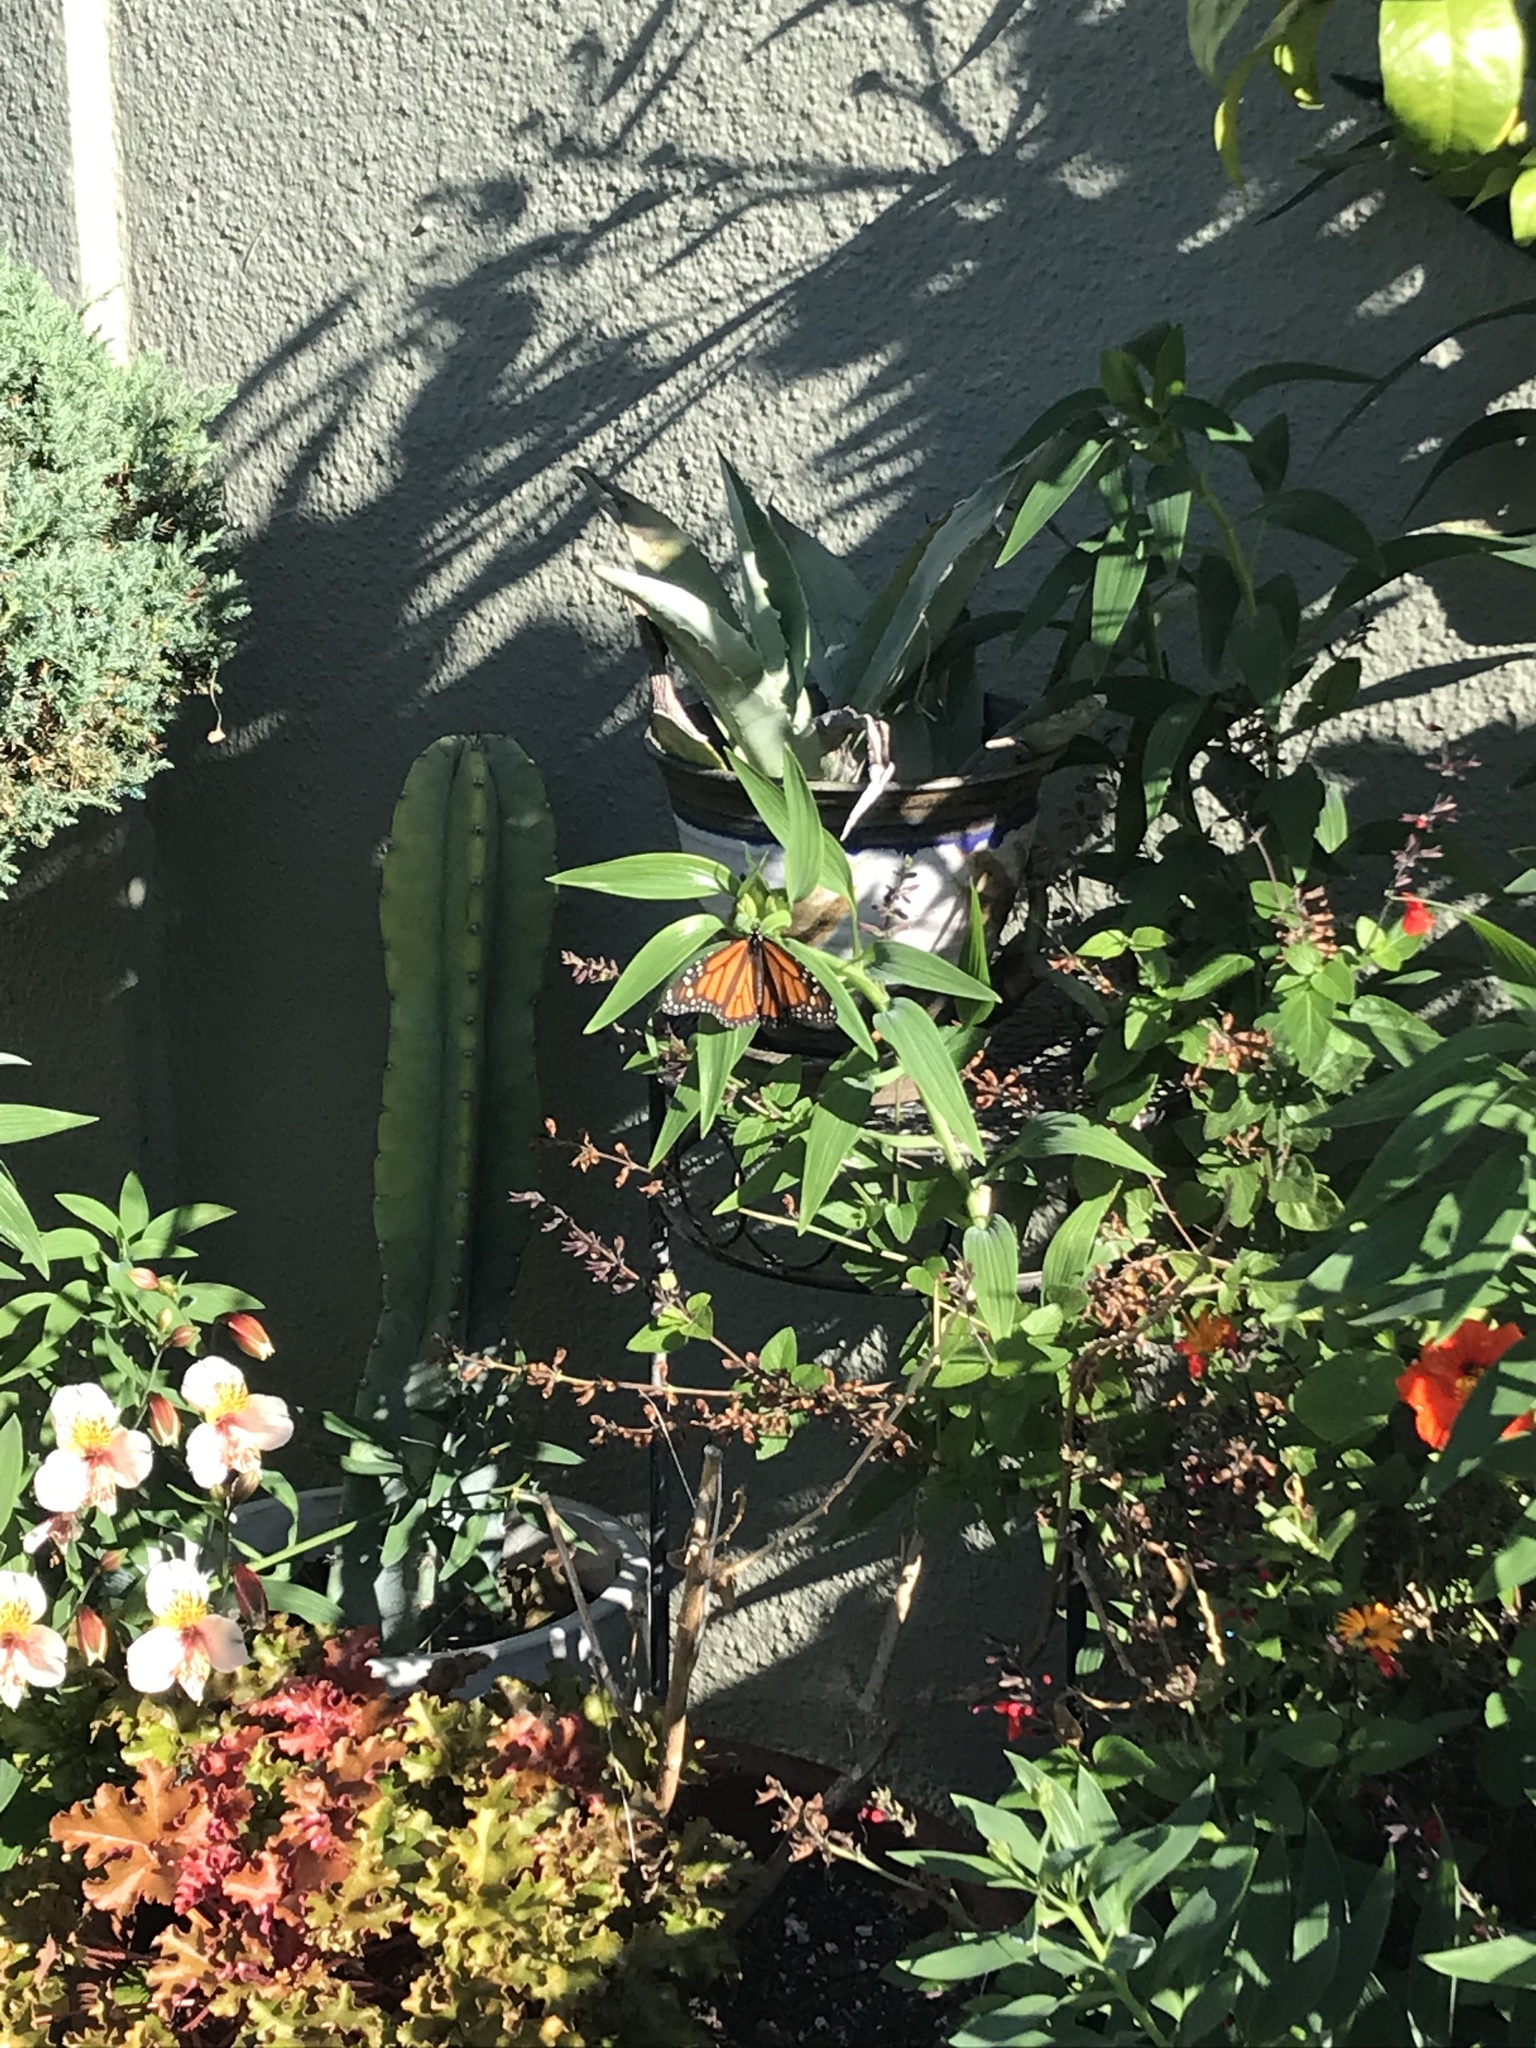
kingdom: Animalia
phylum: Arthropoda
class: Insecta
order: Lepidoptera
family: Nymphalidae
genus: Danaus
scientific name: Danaus plexippus
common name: Monarch
